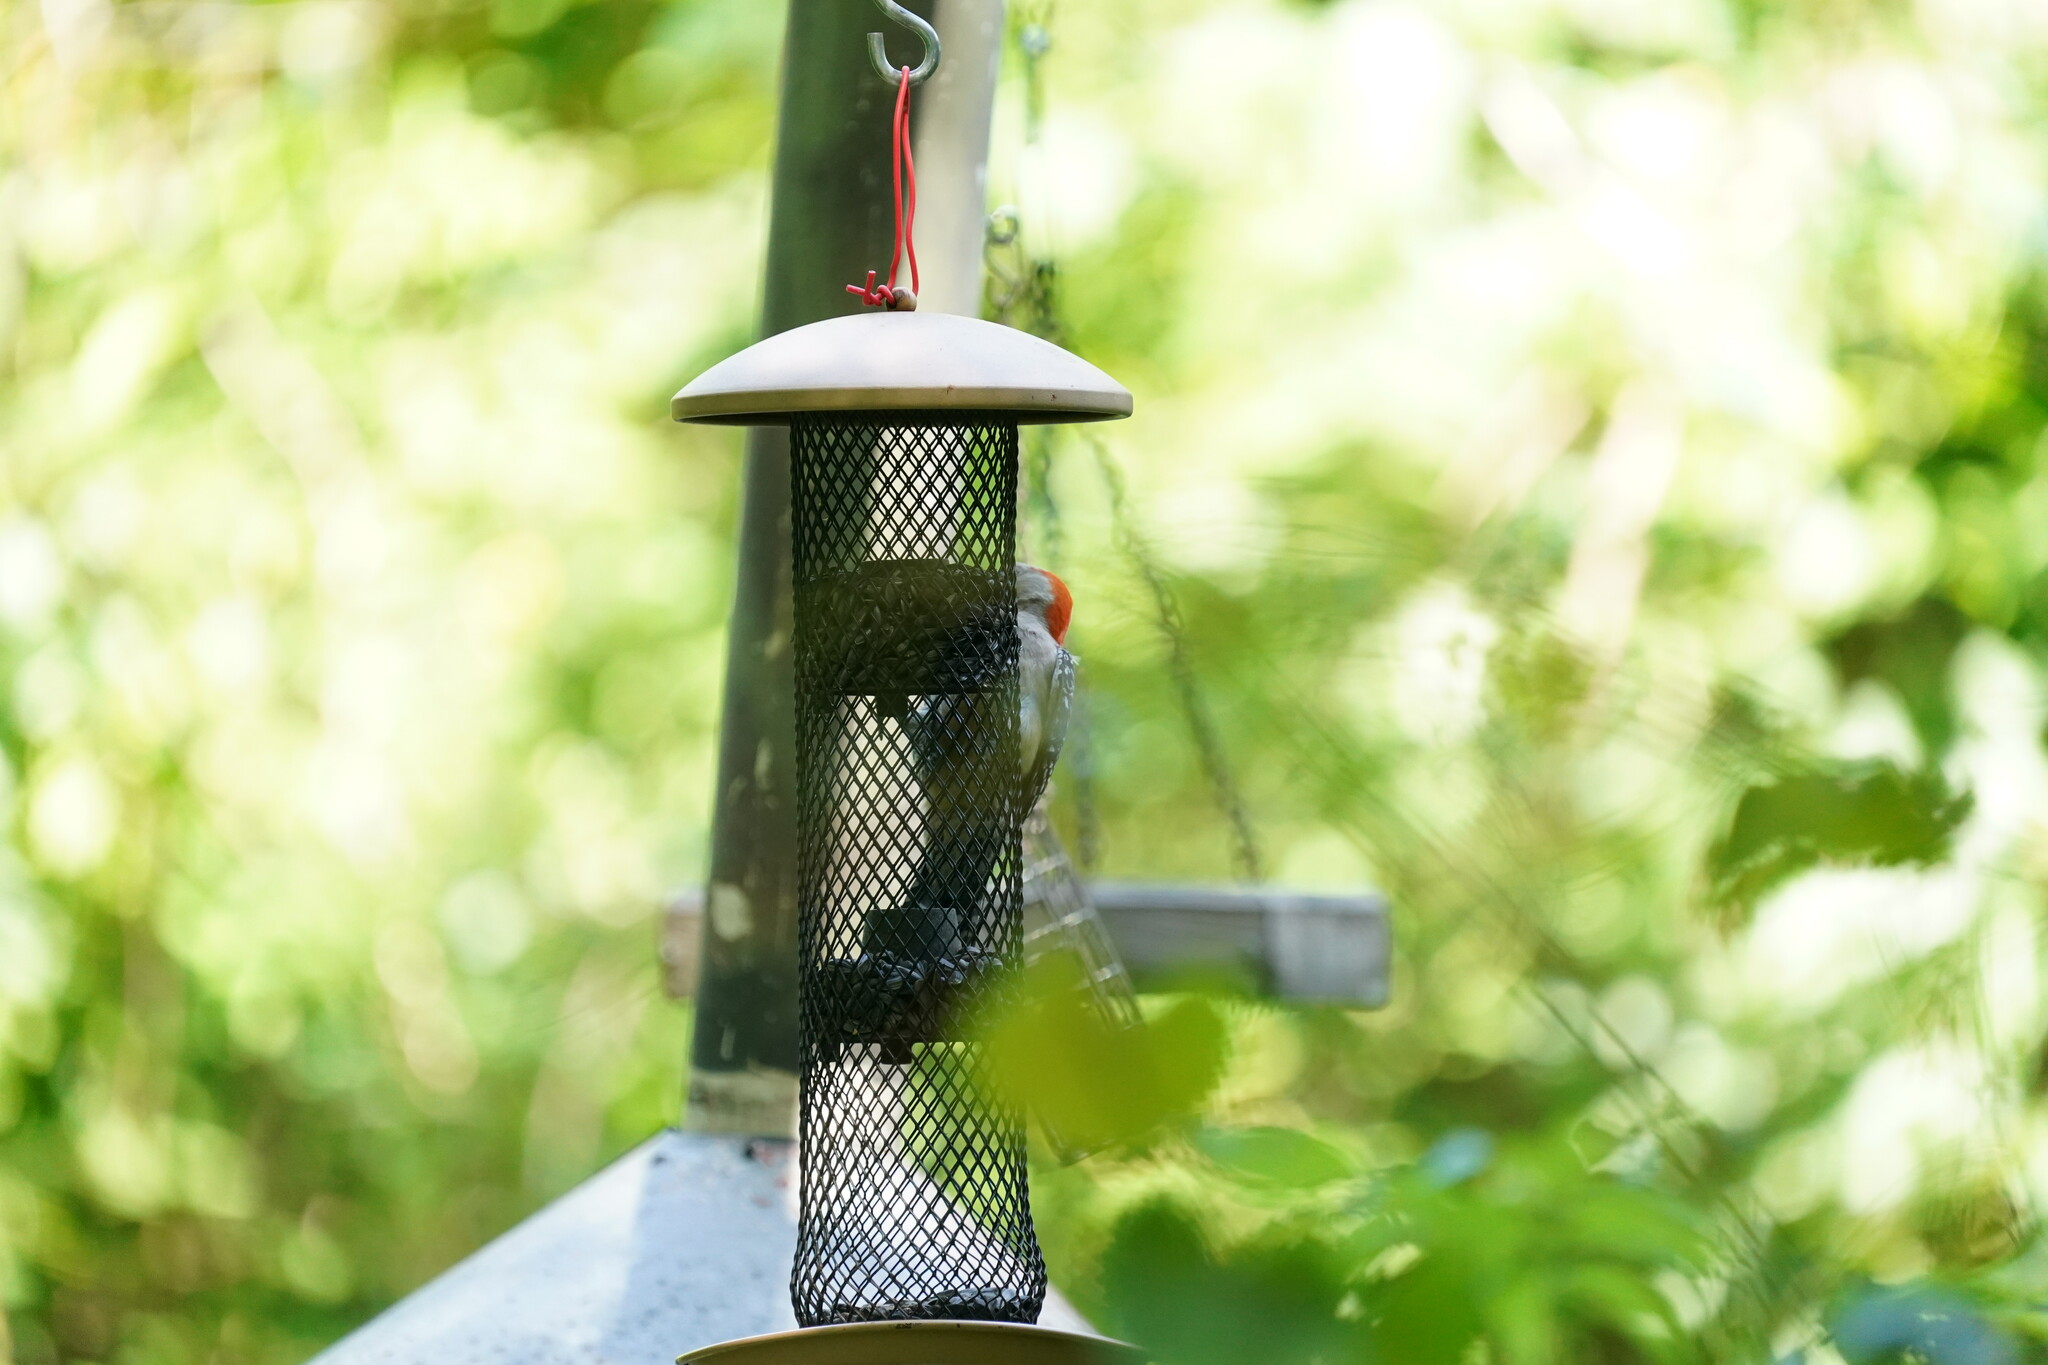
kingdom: Animalia
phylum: Chordata
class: Aves
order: Piciformes
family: Picidae
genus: Melanerpes
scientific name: Melanerpes carolinus
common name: Red-bellied woodpecker
